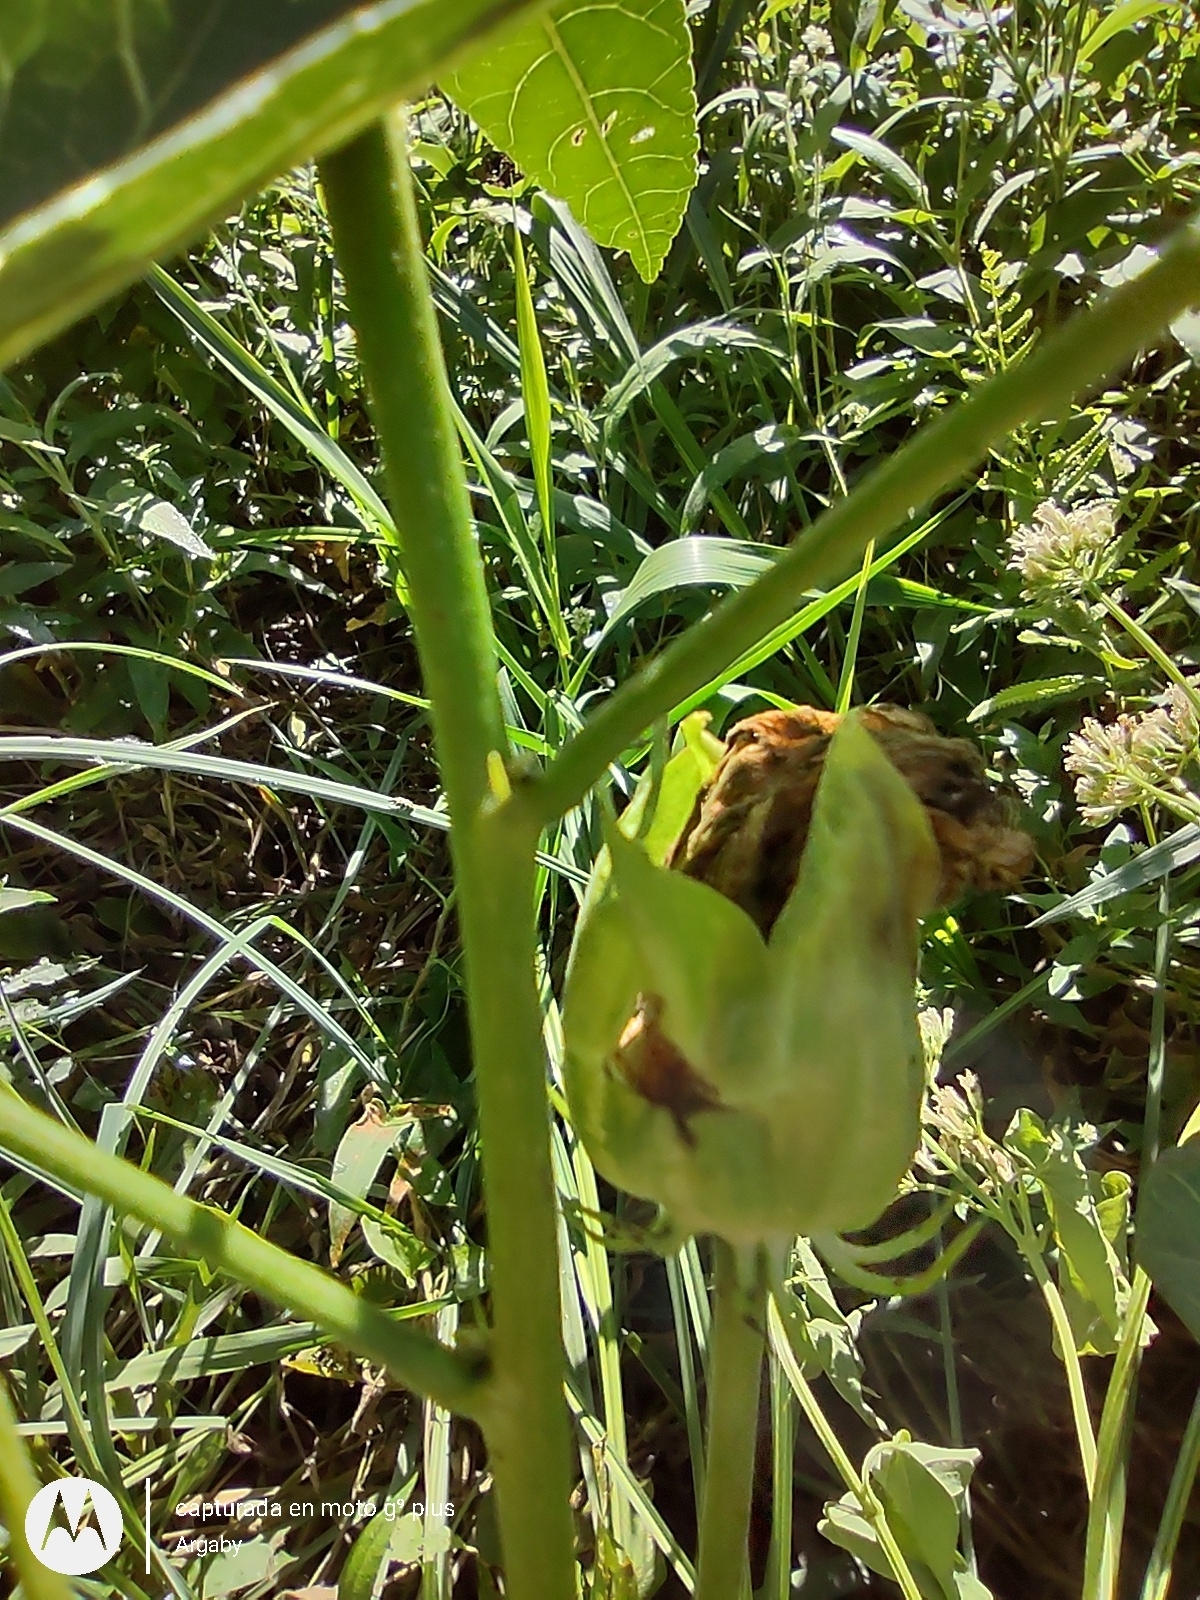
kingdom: Plantae
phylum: Tracheophyta
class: Magnoliopsida
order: Malvales
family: Malvaceae
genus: Hibiscus
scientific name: Hibiscus striatus
